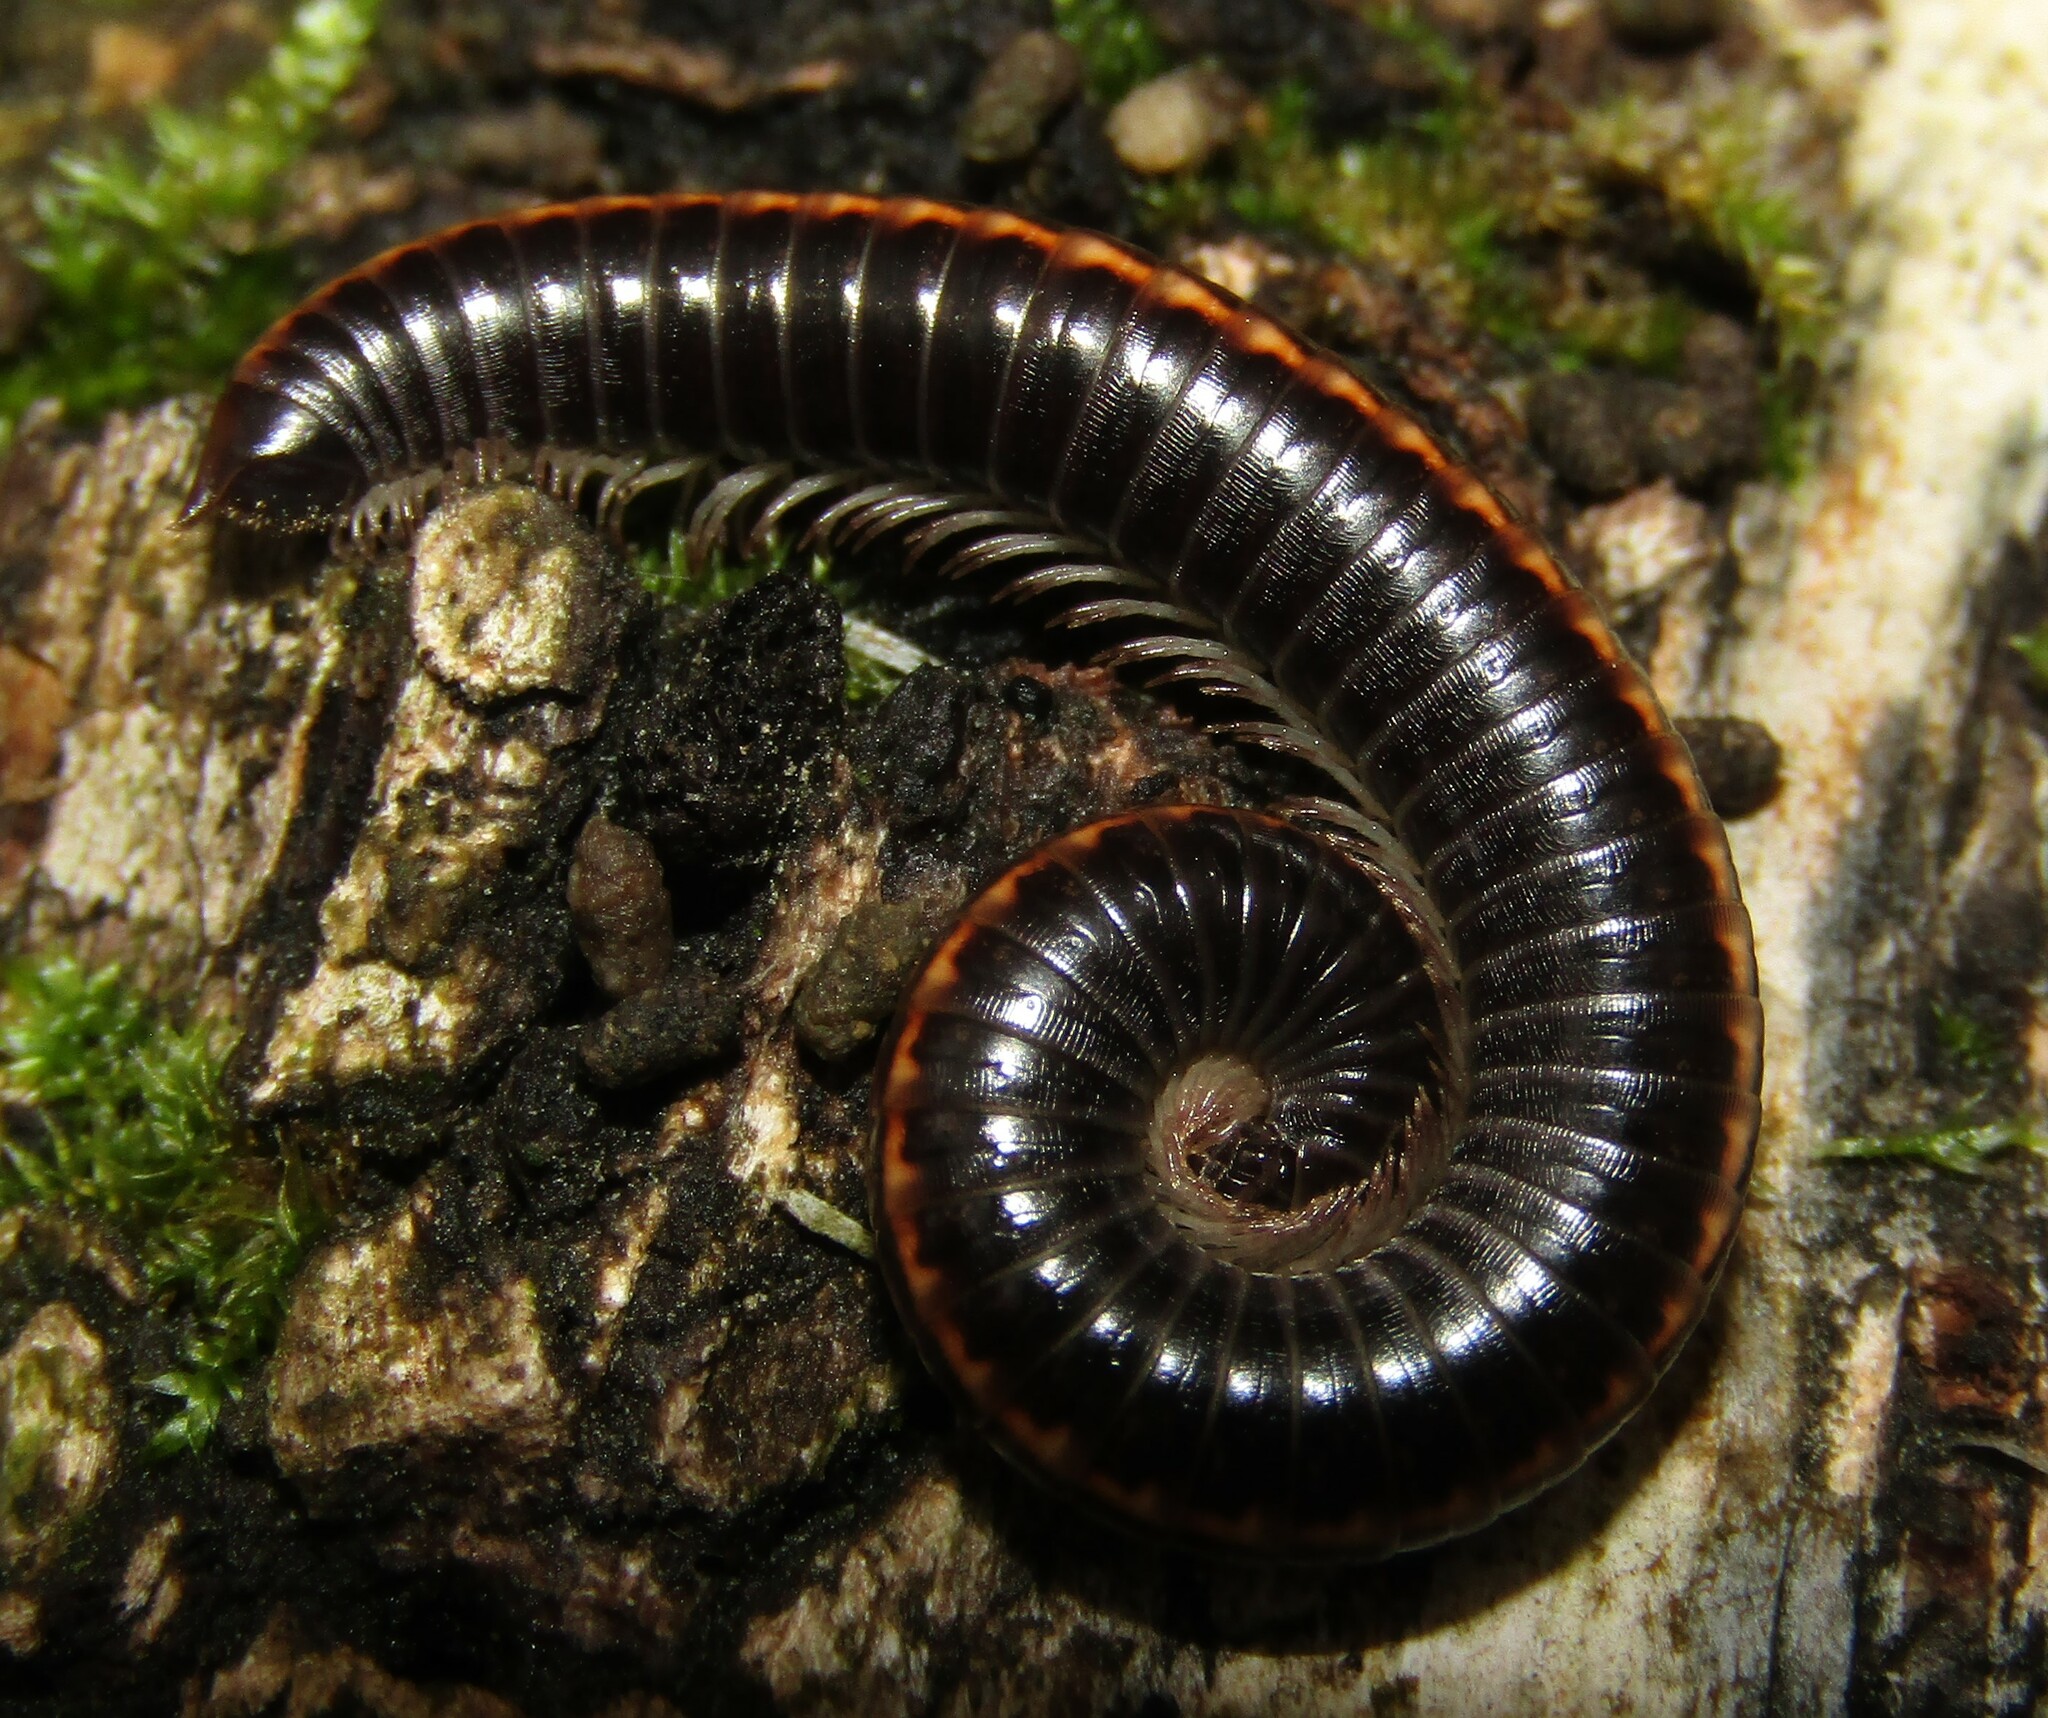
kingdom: Animalia
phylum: Arthropoda
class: Diplopoda
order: Julida
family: Julidae
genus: Ommatoiulus
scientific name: Ommatoiulus sabulosus
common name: Striped millipede
